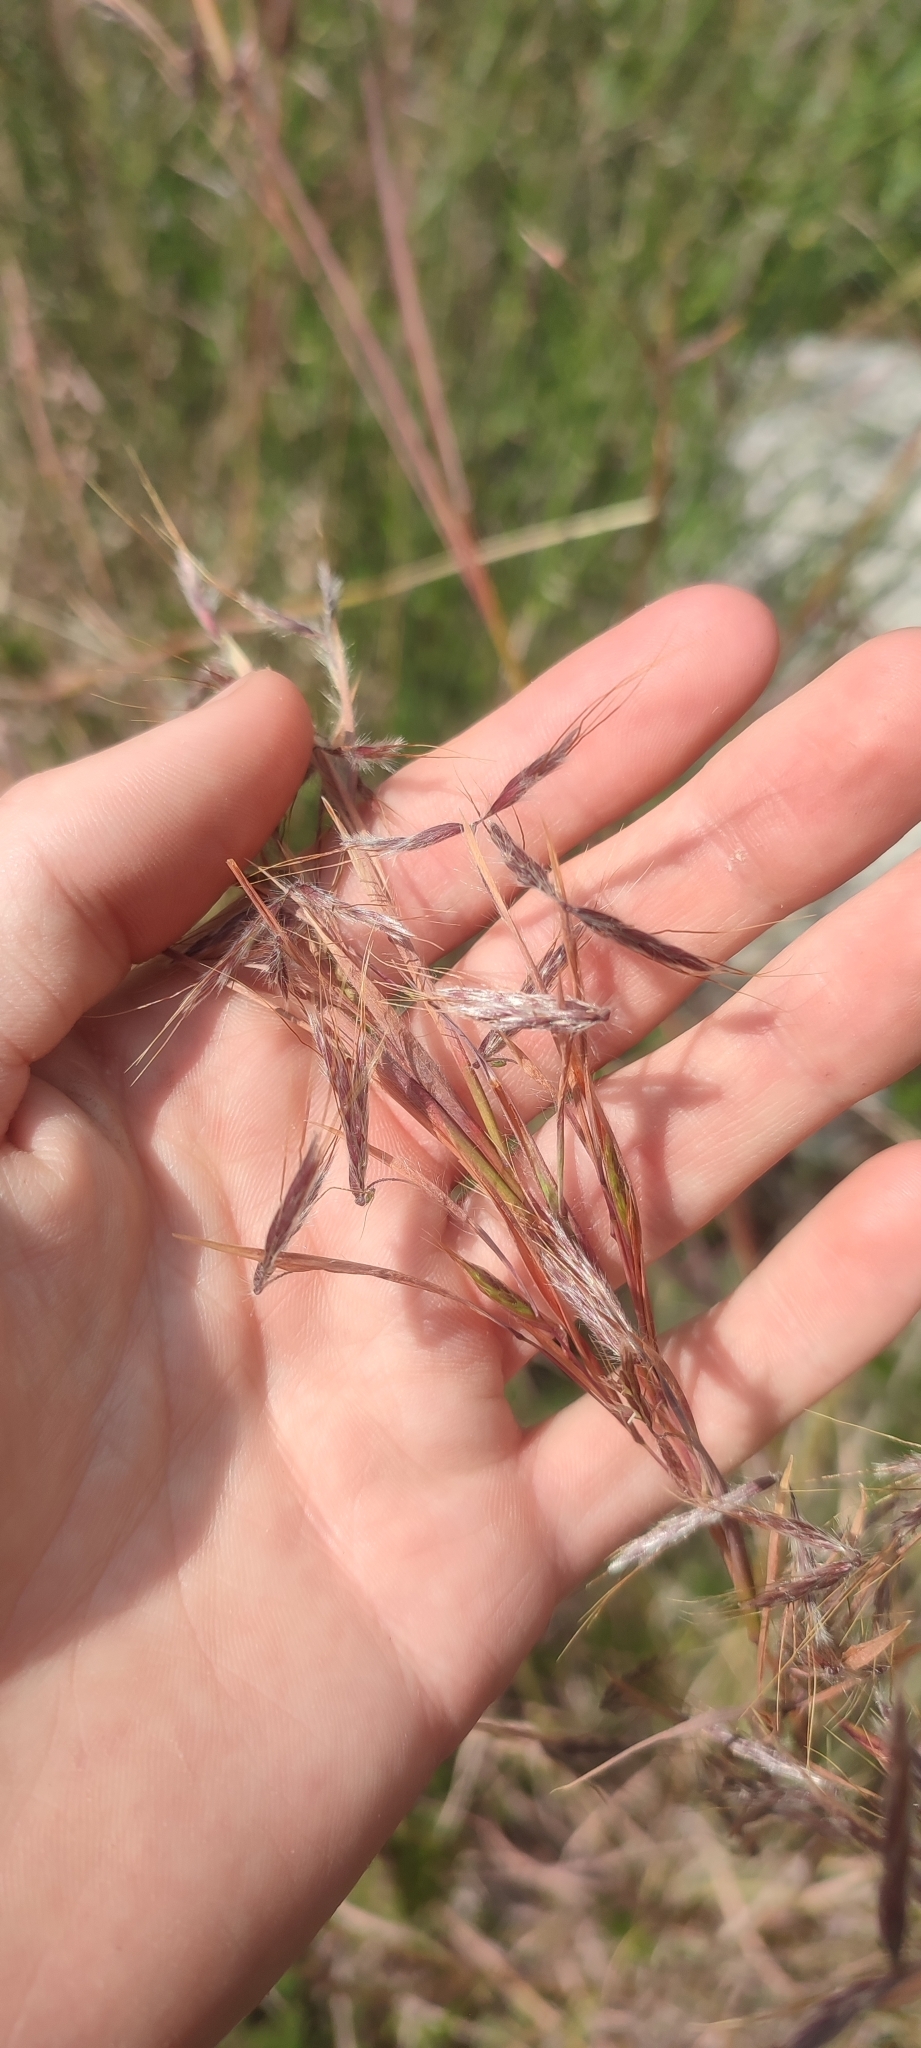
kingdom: Plantae
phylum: Tracheophyta
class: Liliopsida
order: Poales
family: Poaceae
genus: Hyparrhenia
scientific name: Hyparrhenia hirta
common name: Thatching grass
